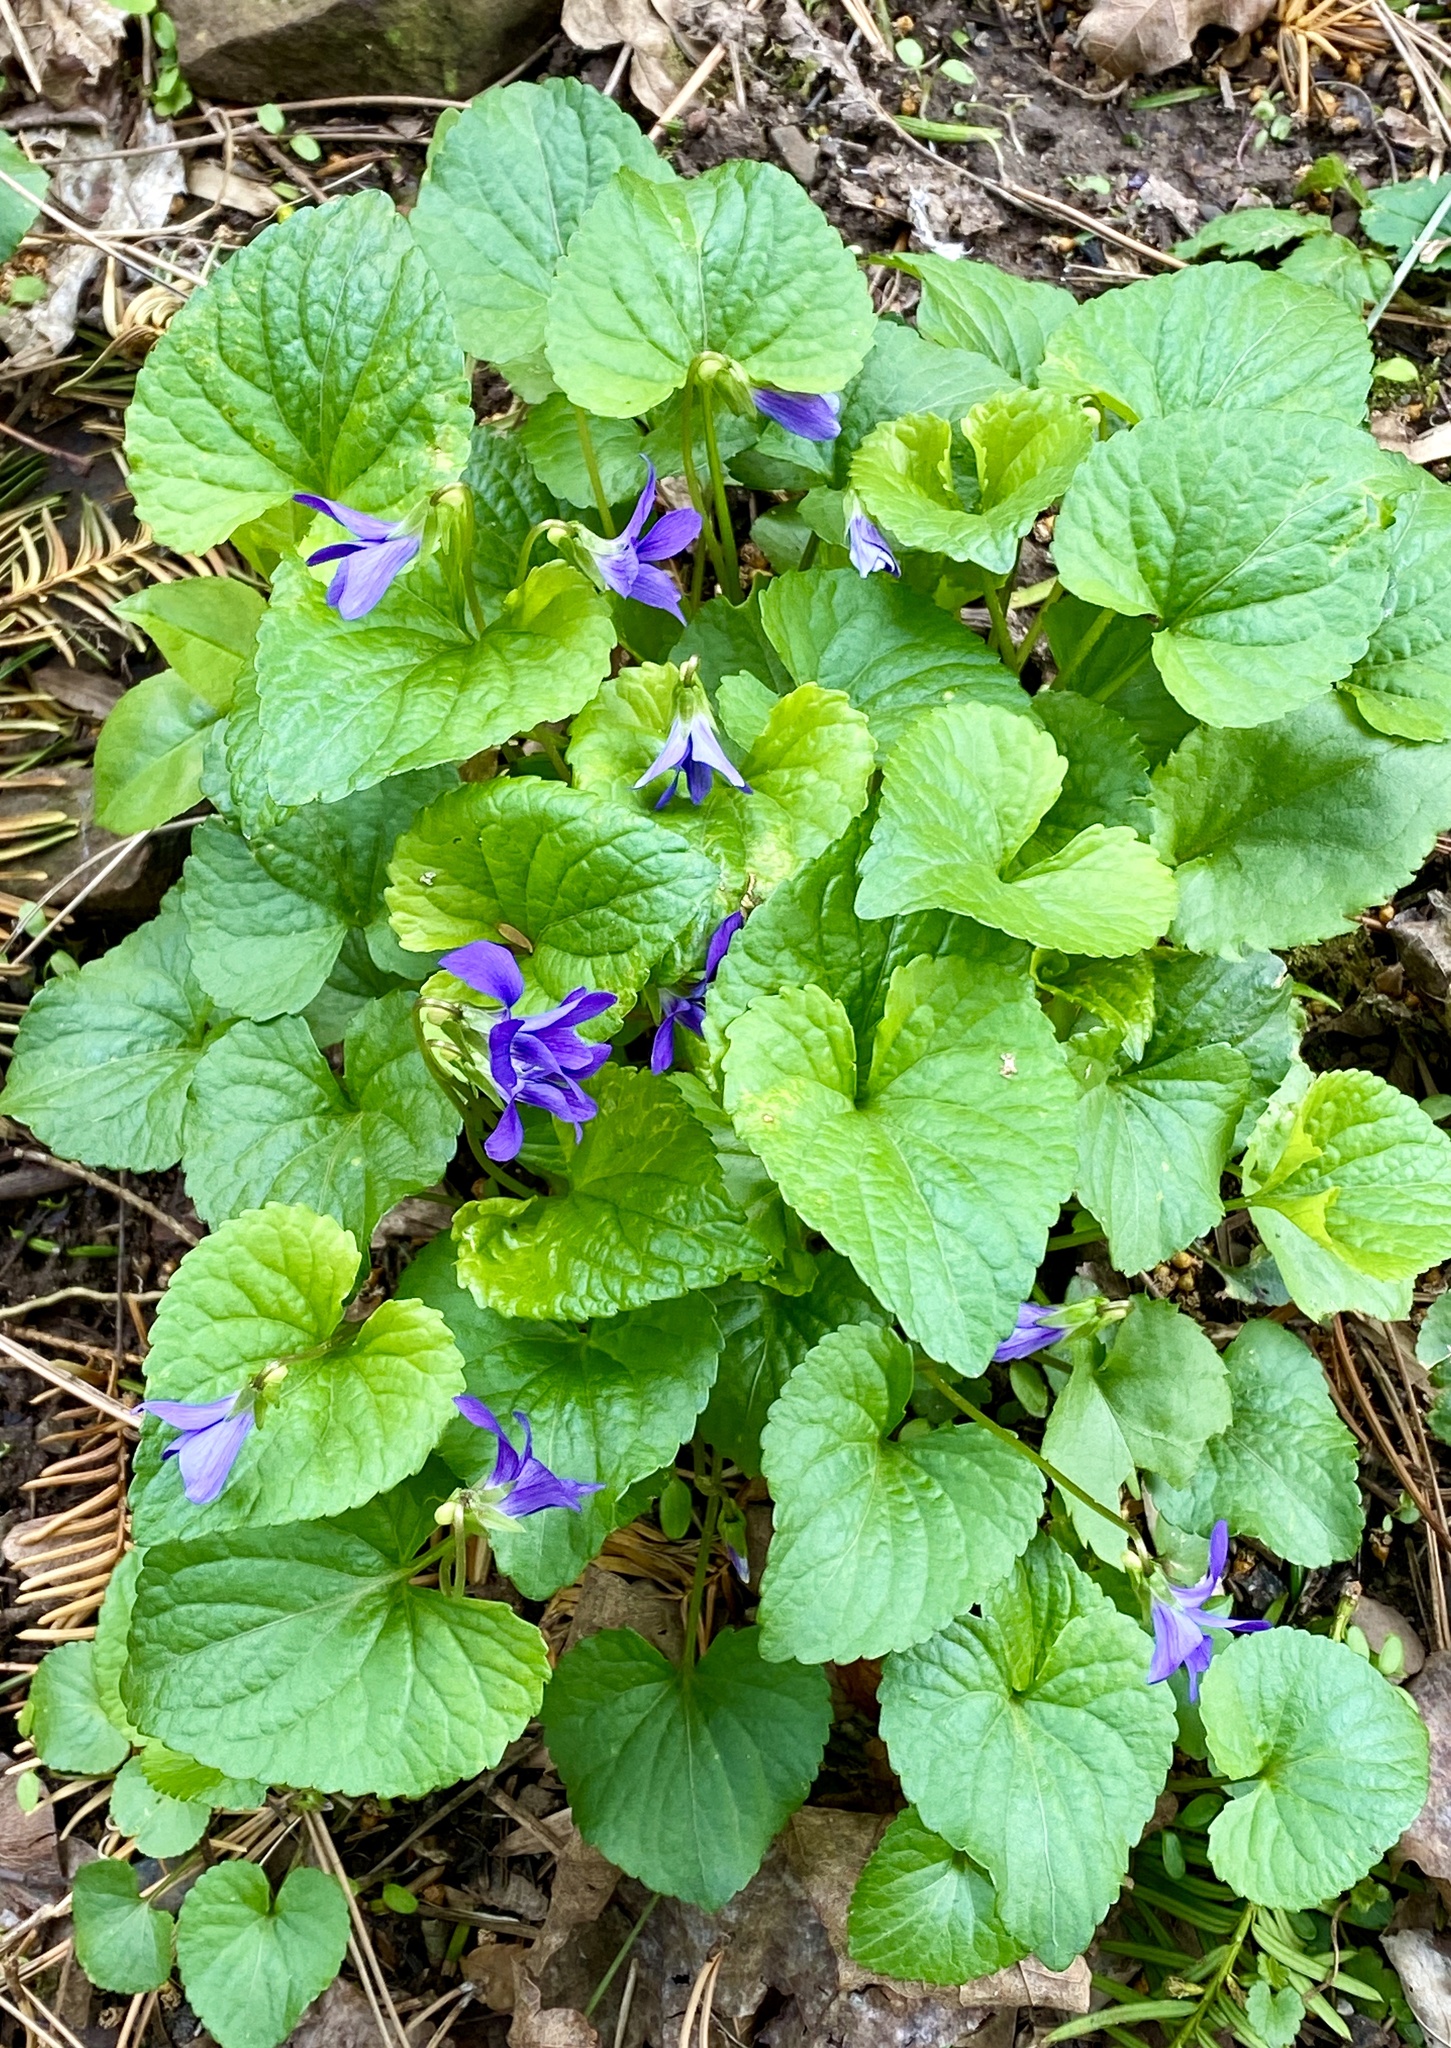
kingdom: Plantae
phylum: Tracheophyta
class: Magnoliopsida
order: Malpighiales
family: Violaceae
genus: Viola
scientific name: Viola sororia
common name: Dooryard violet
